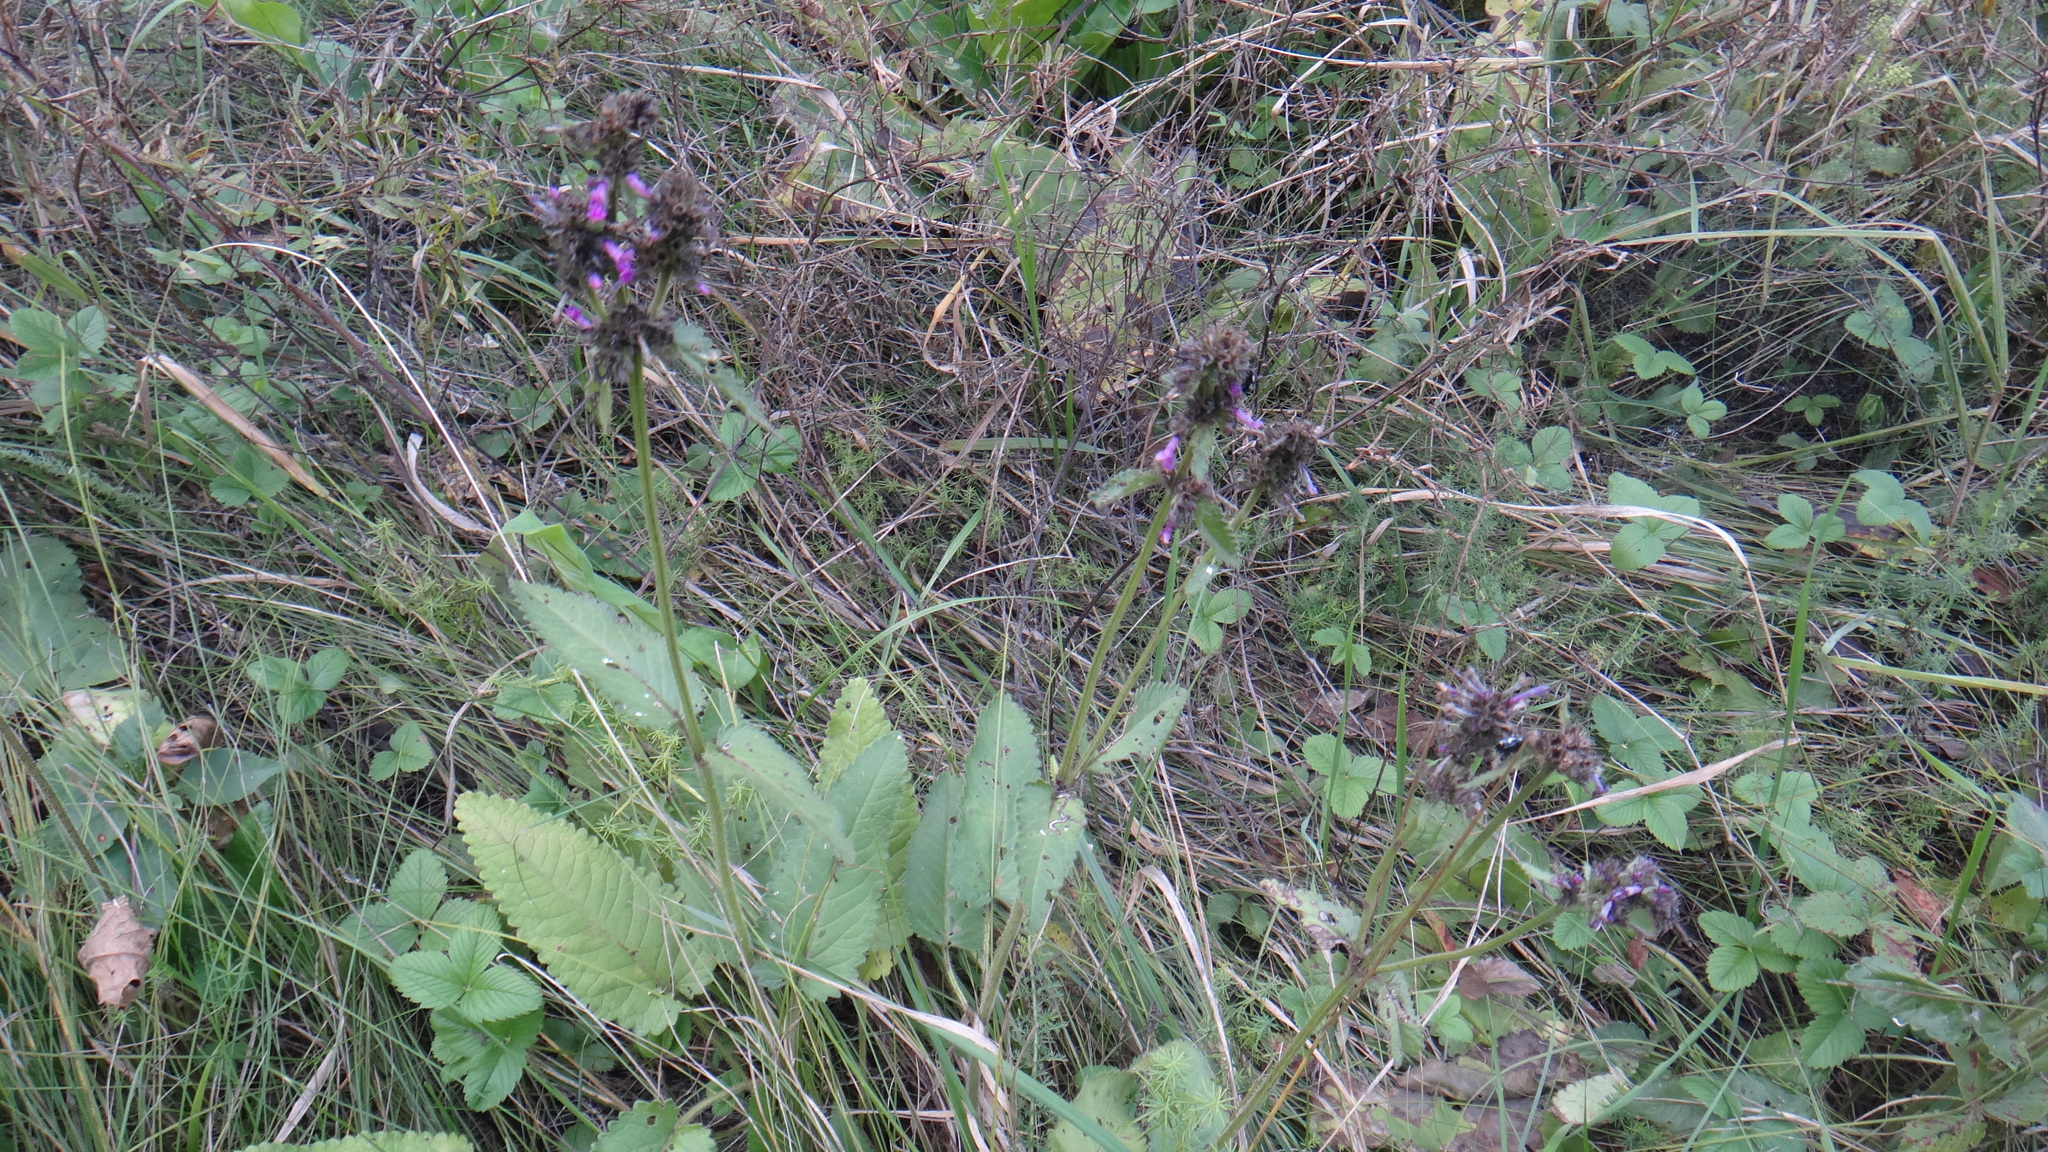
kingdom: Plantae
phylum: Tracheophyta
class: Magnoliopsida
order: Lamiales
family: Lamiaceae
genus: Betonica
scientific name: Betonica officinalis
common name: Bishop's-wort
